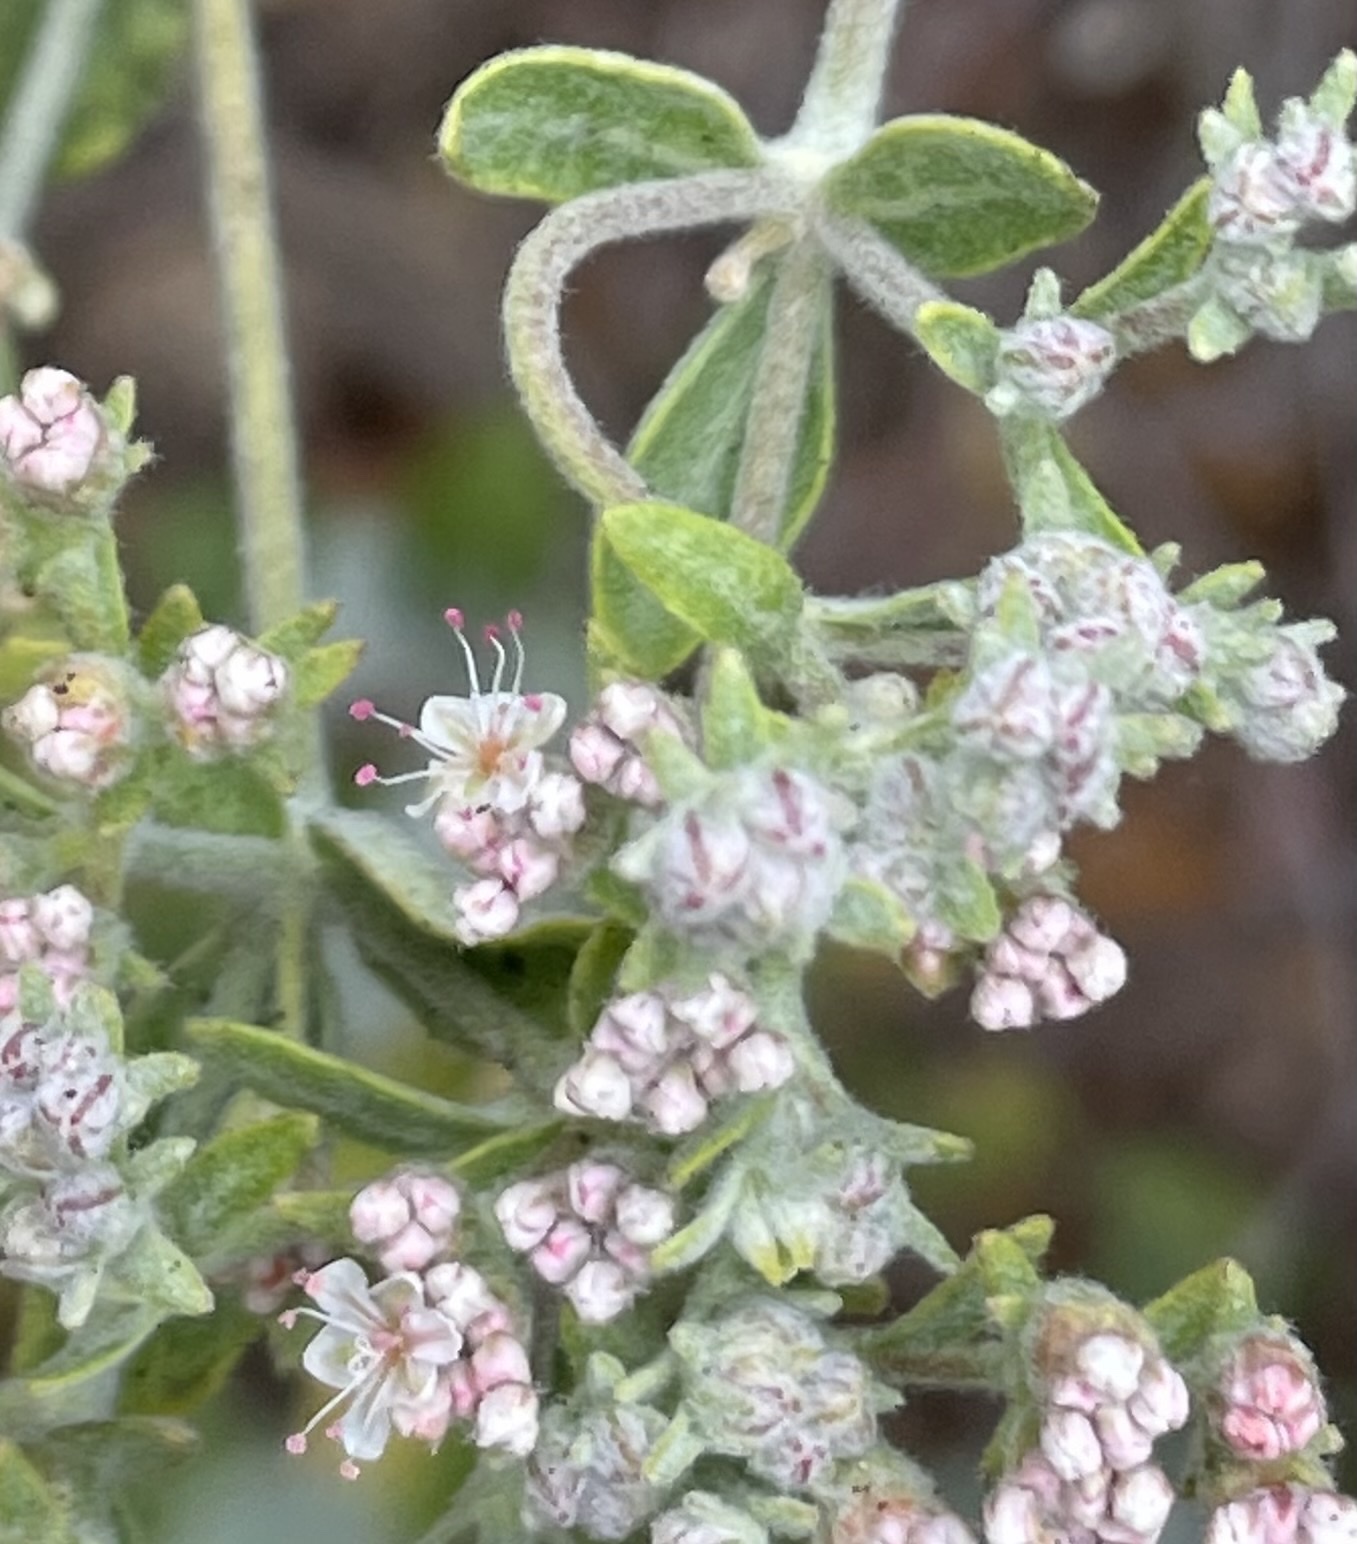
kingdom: Plantae
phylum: Tracheophyta
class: Magnoliopsida
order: Caryophyllales
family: Polygonaceae
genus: Eriogonum
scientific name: Eriogonum giganteum
